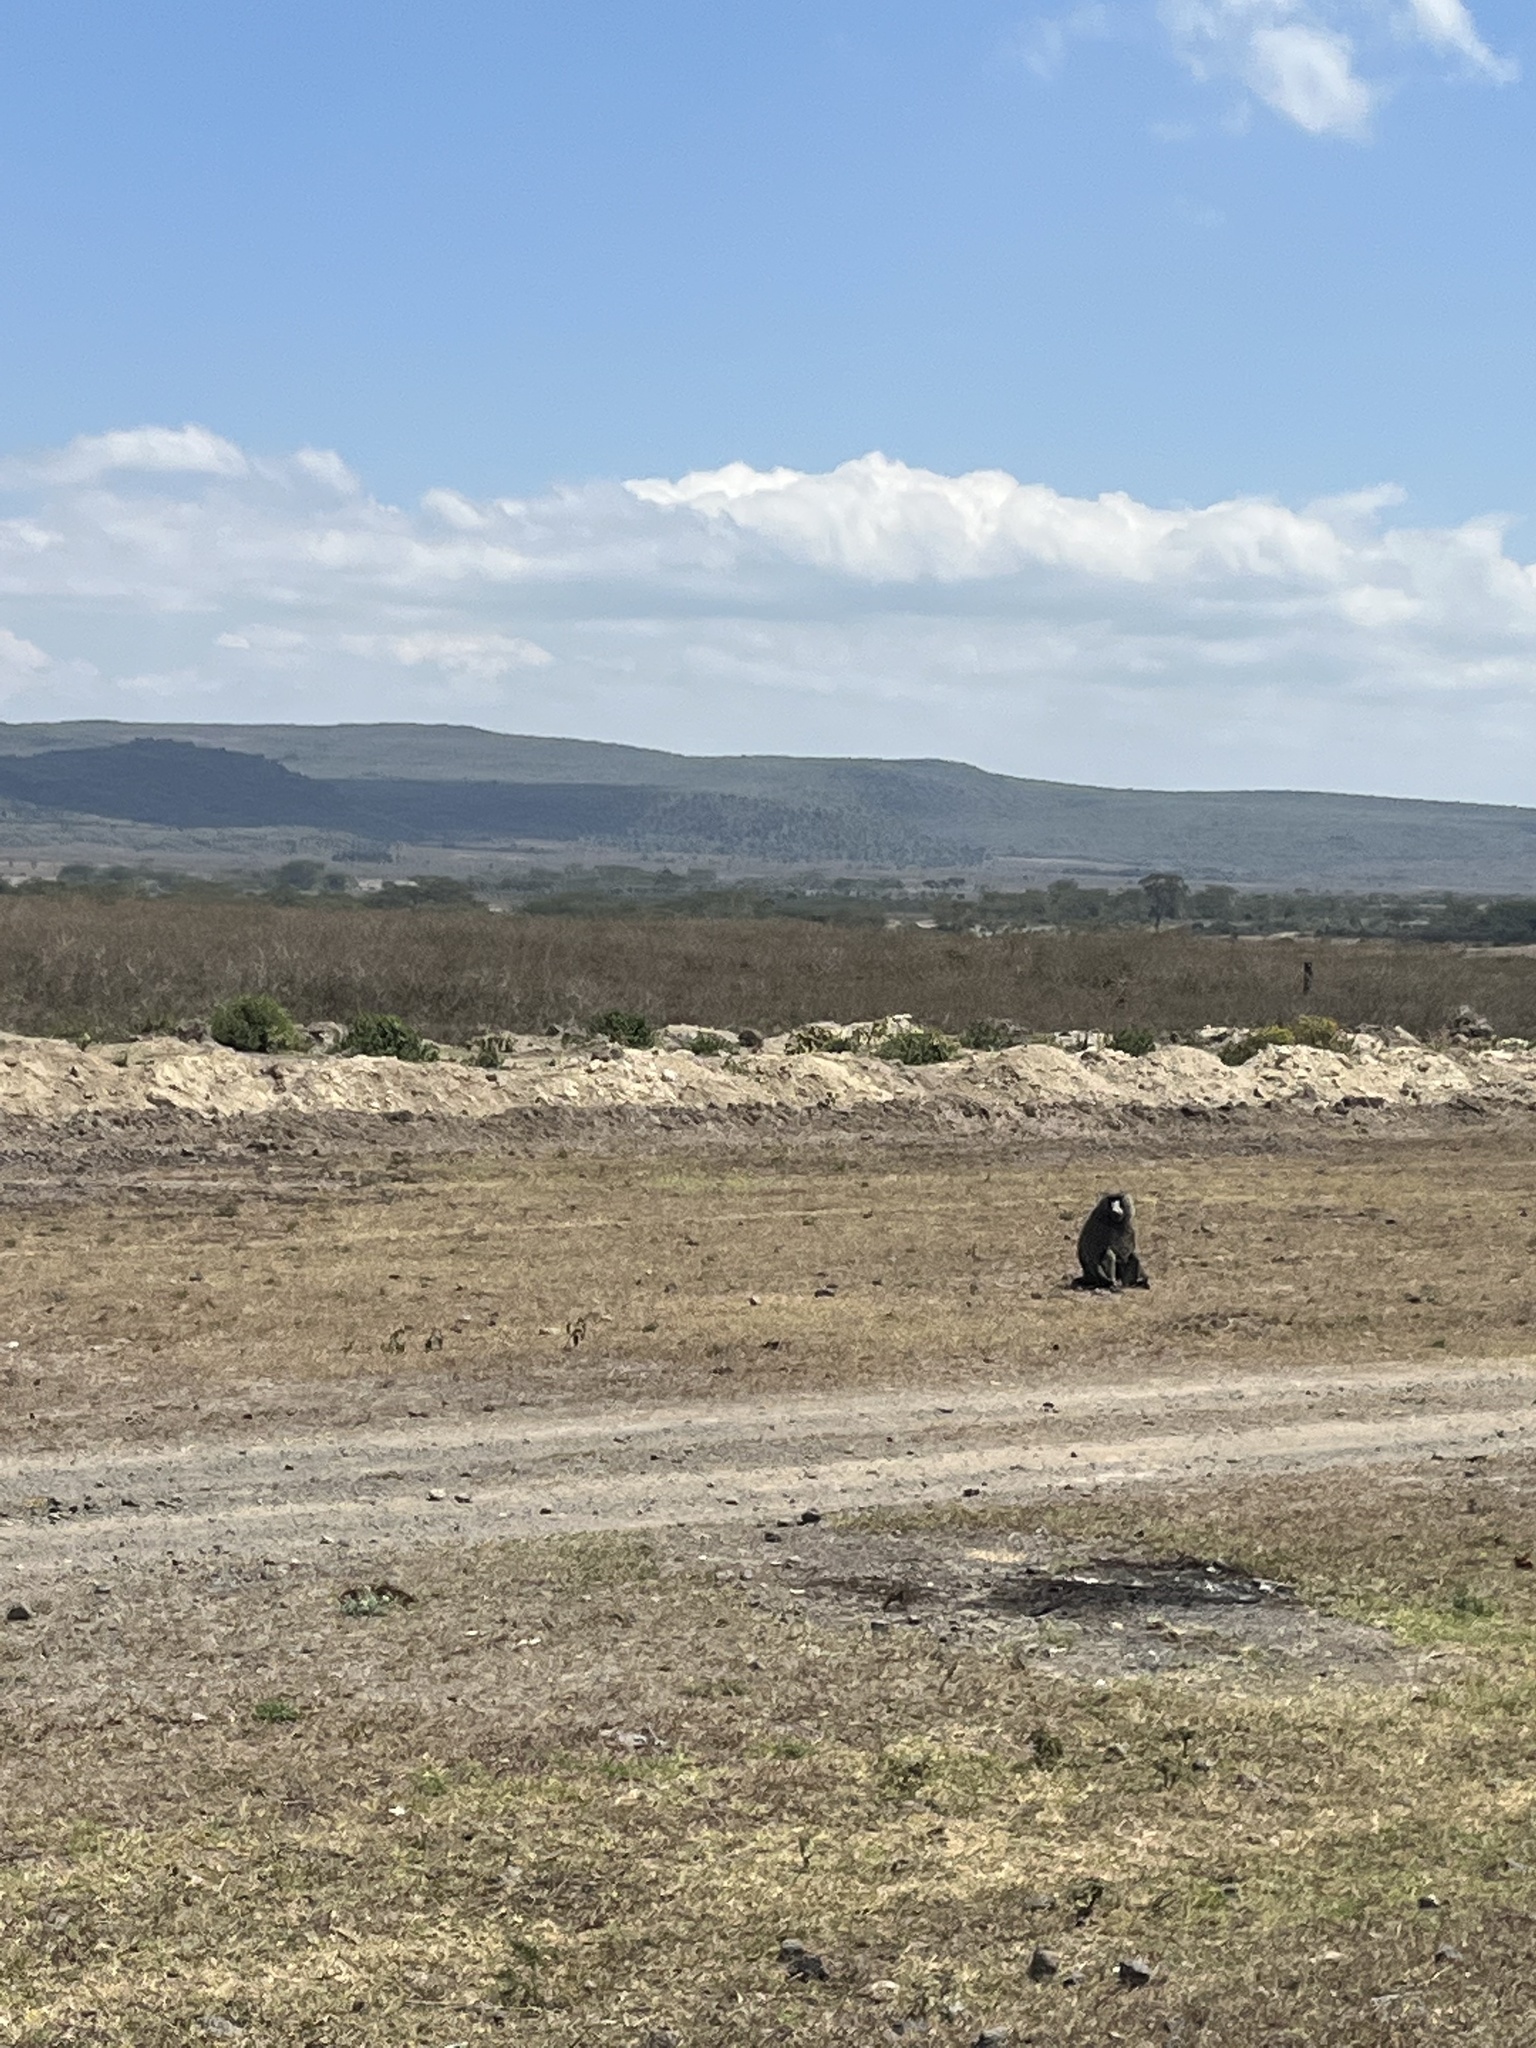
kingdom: Animalia
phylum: Chordata
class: Mammalia
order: Primates
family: Cercopithecidae
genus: Papio
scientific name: Papio anubis
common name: Olive baboon
